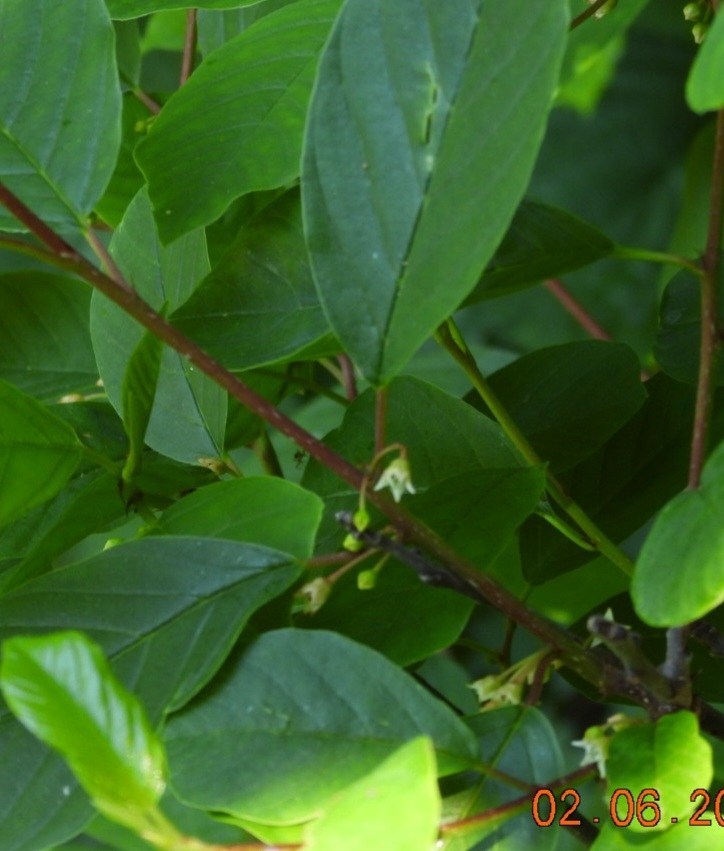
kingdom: Plantae
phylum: Tracheophyta
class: Magnoliopsida
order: Rosales
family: Rhamnaceae
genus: Frangula
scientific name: Frangula alnus
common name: Alder buckthorn
